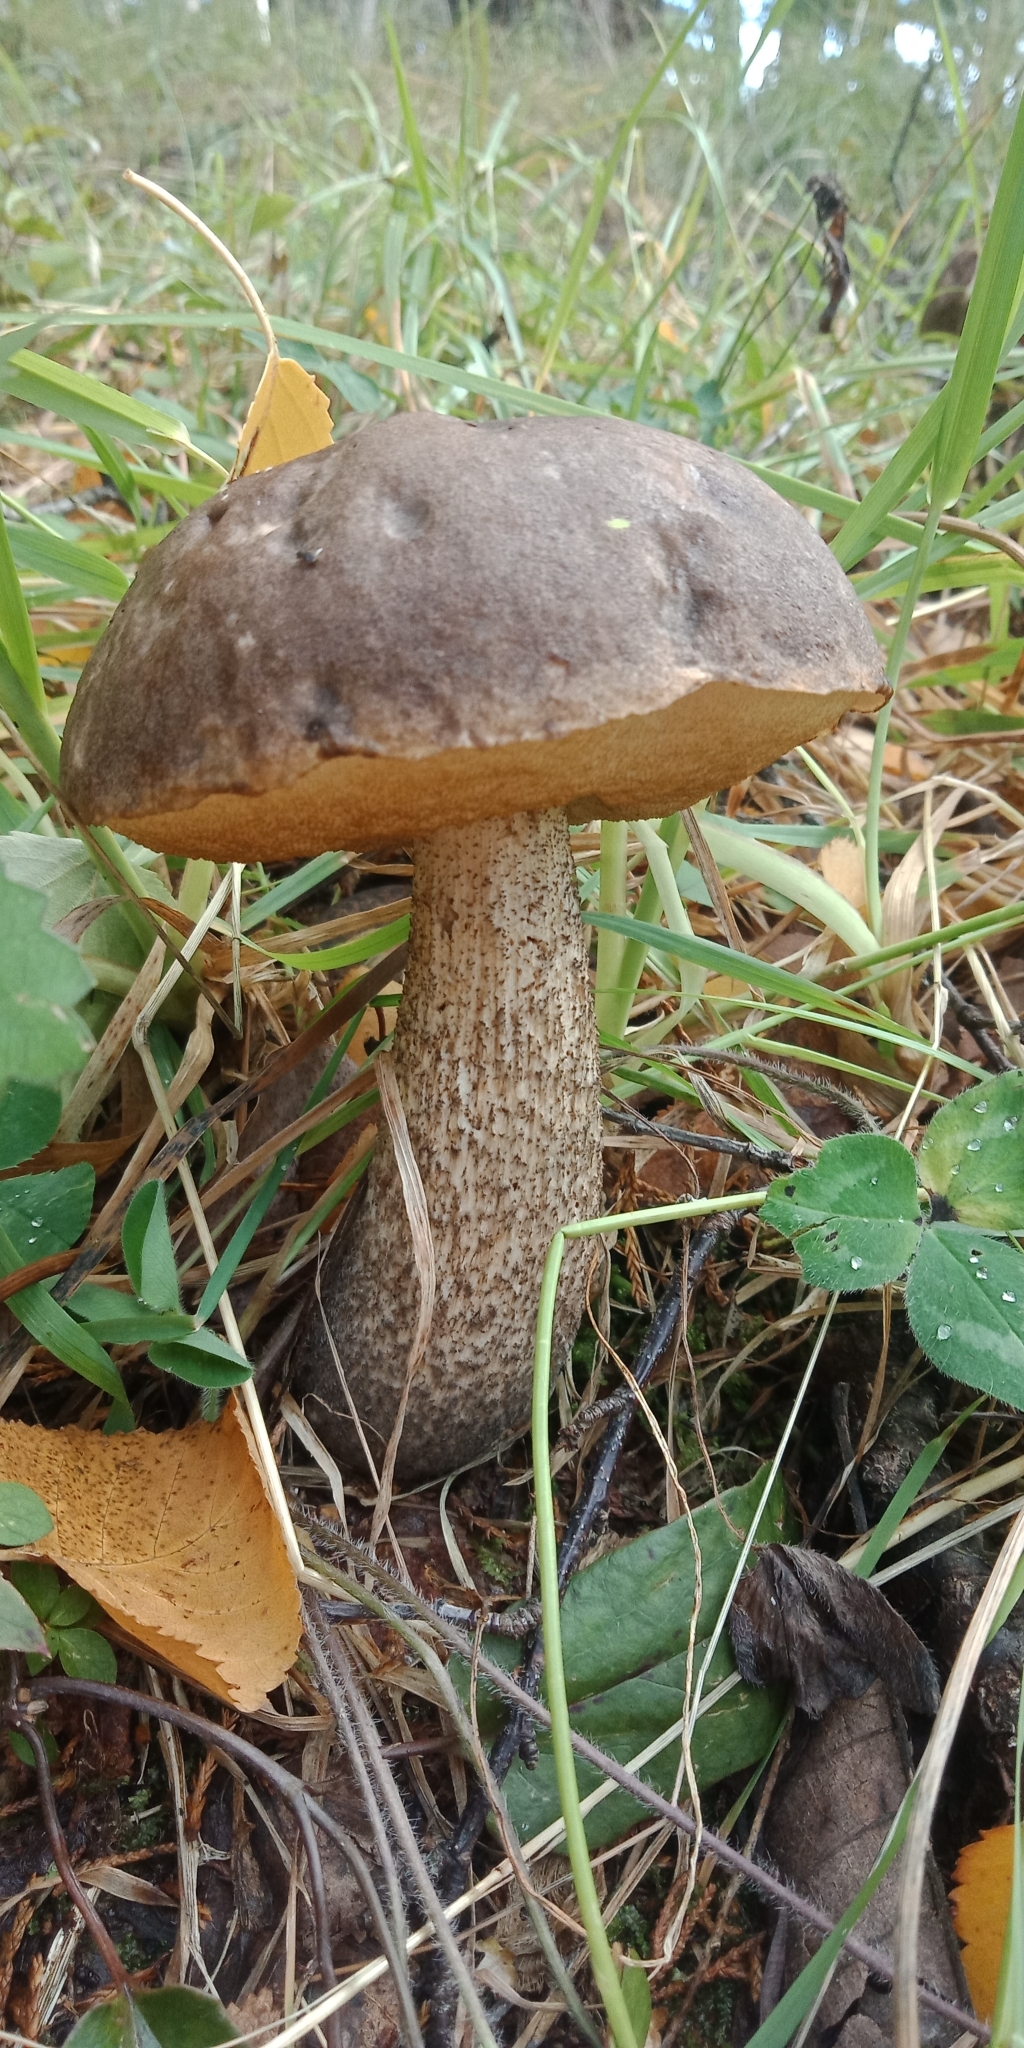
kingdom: Fungi
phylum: Basidiomycota
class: Agaricomycetes
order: Boletales
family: Boletaceae
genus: Leccinum
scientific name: Leccinum scabrum
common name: Blushing bolete
